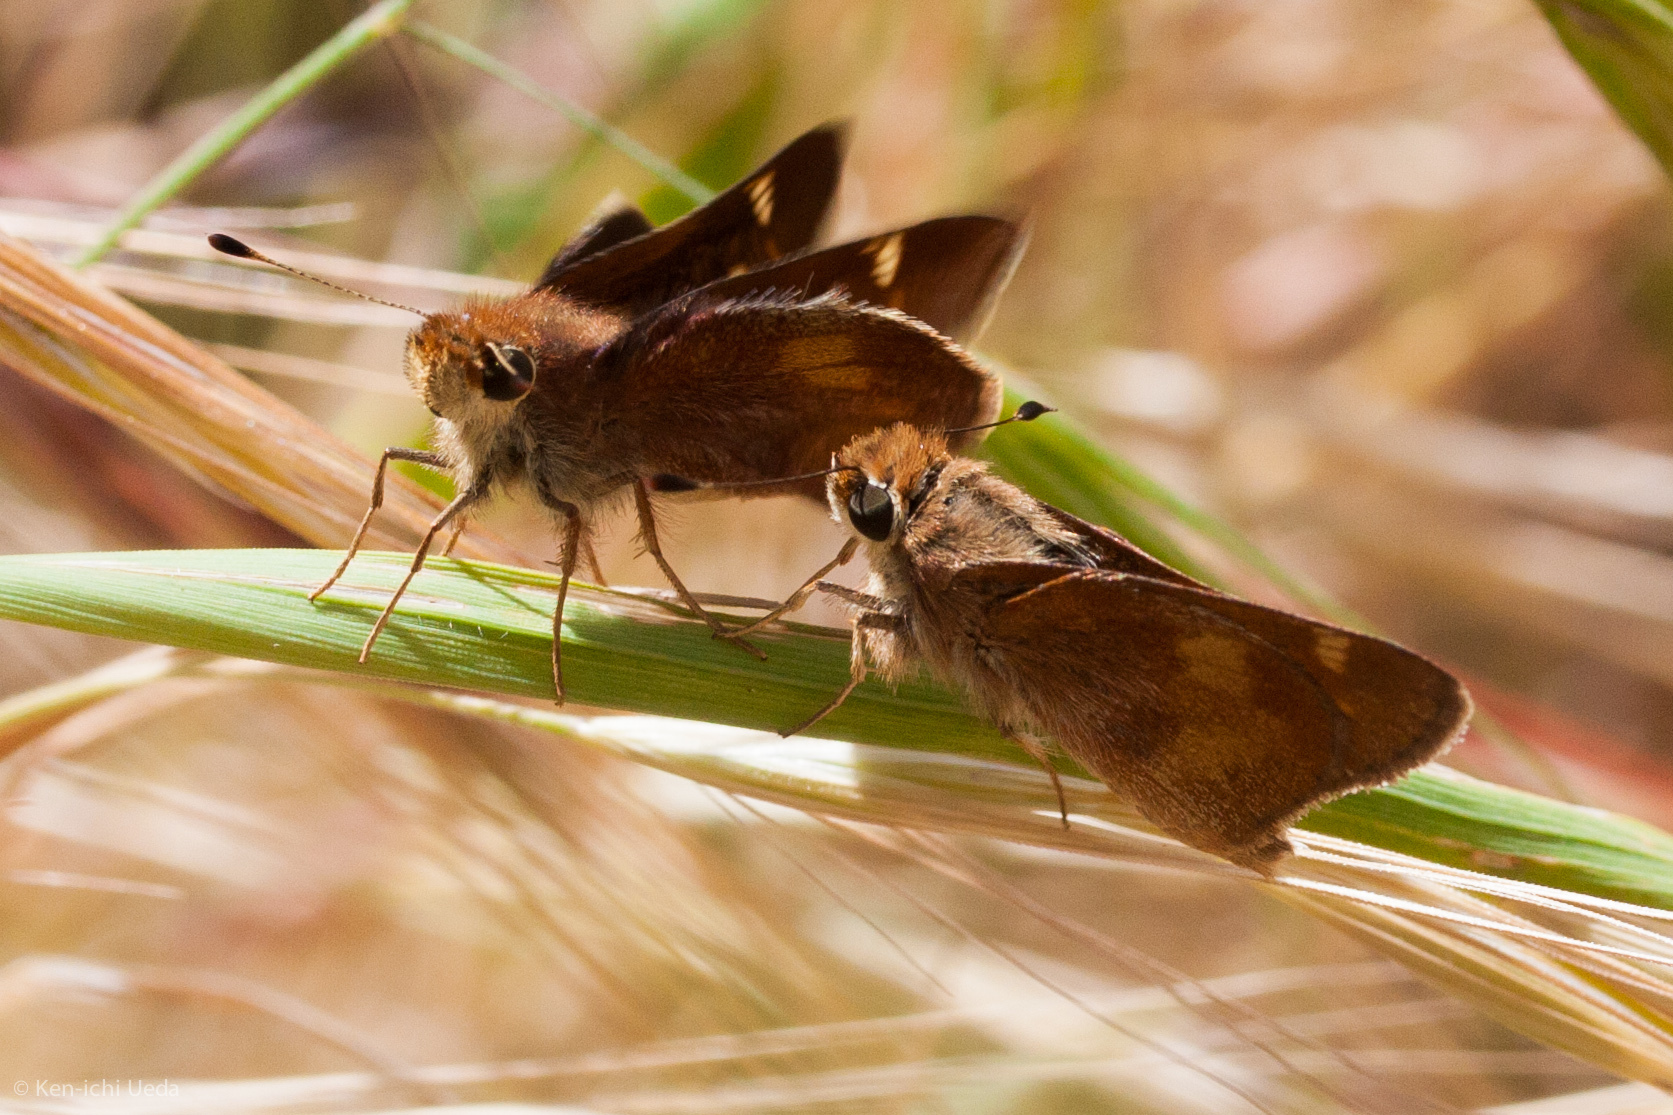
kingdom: Animalia
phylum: Arthropoda
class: Insecta
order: Lepidoptera
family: Hesperiidae
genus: Lon
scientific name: Lon melane
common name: Umber skipper
